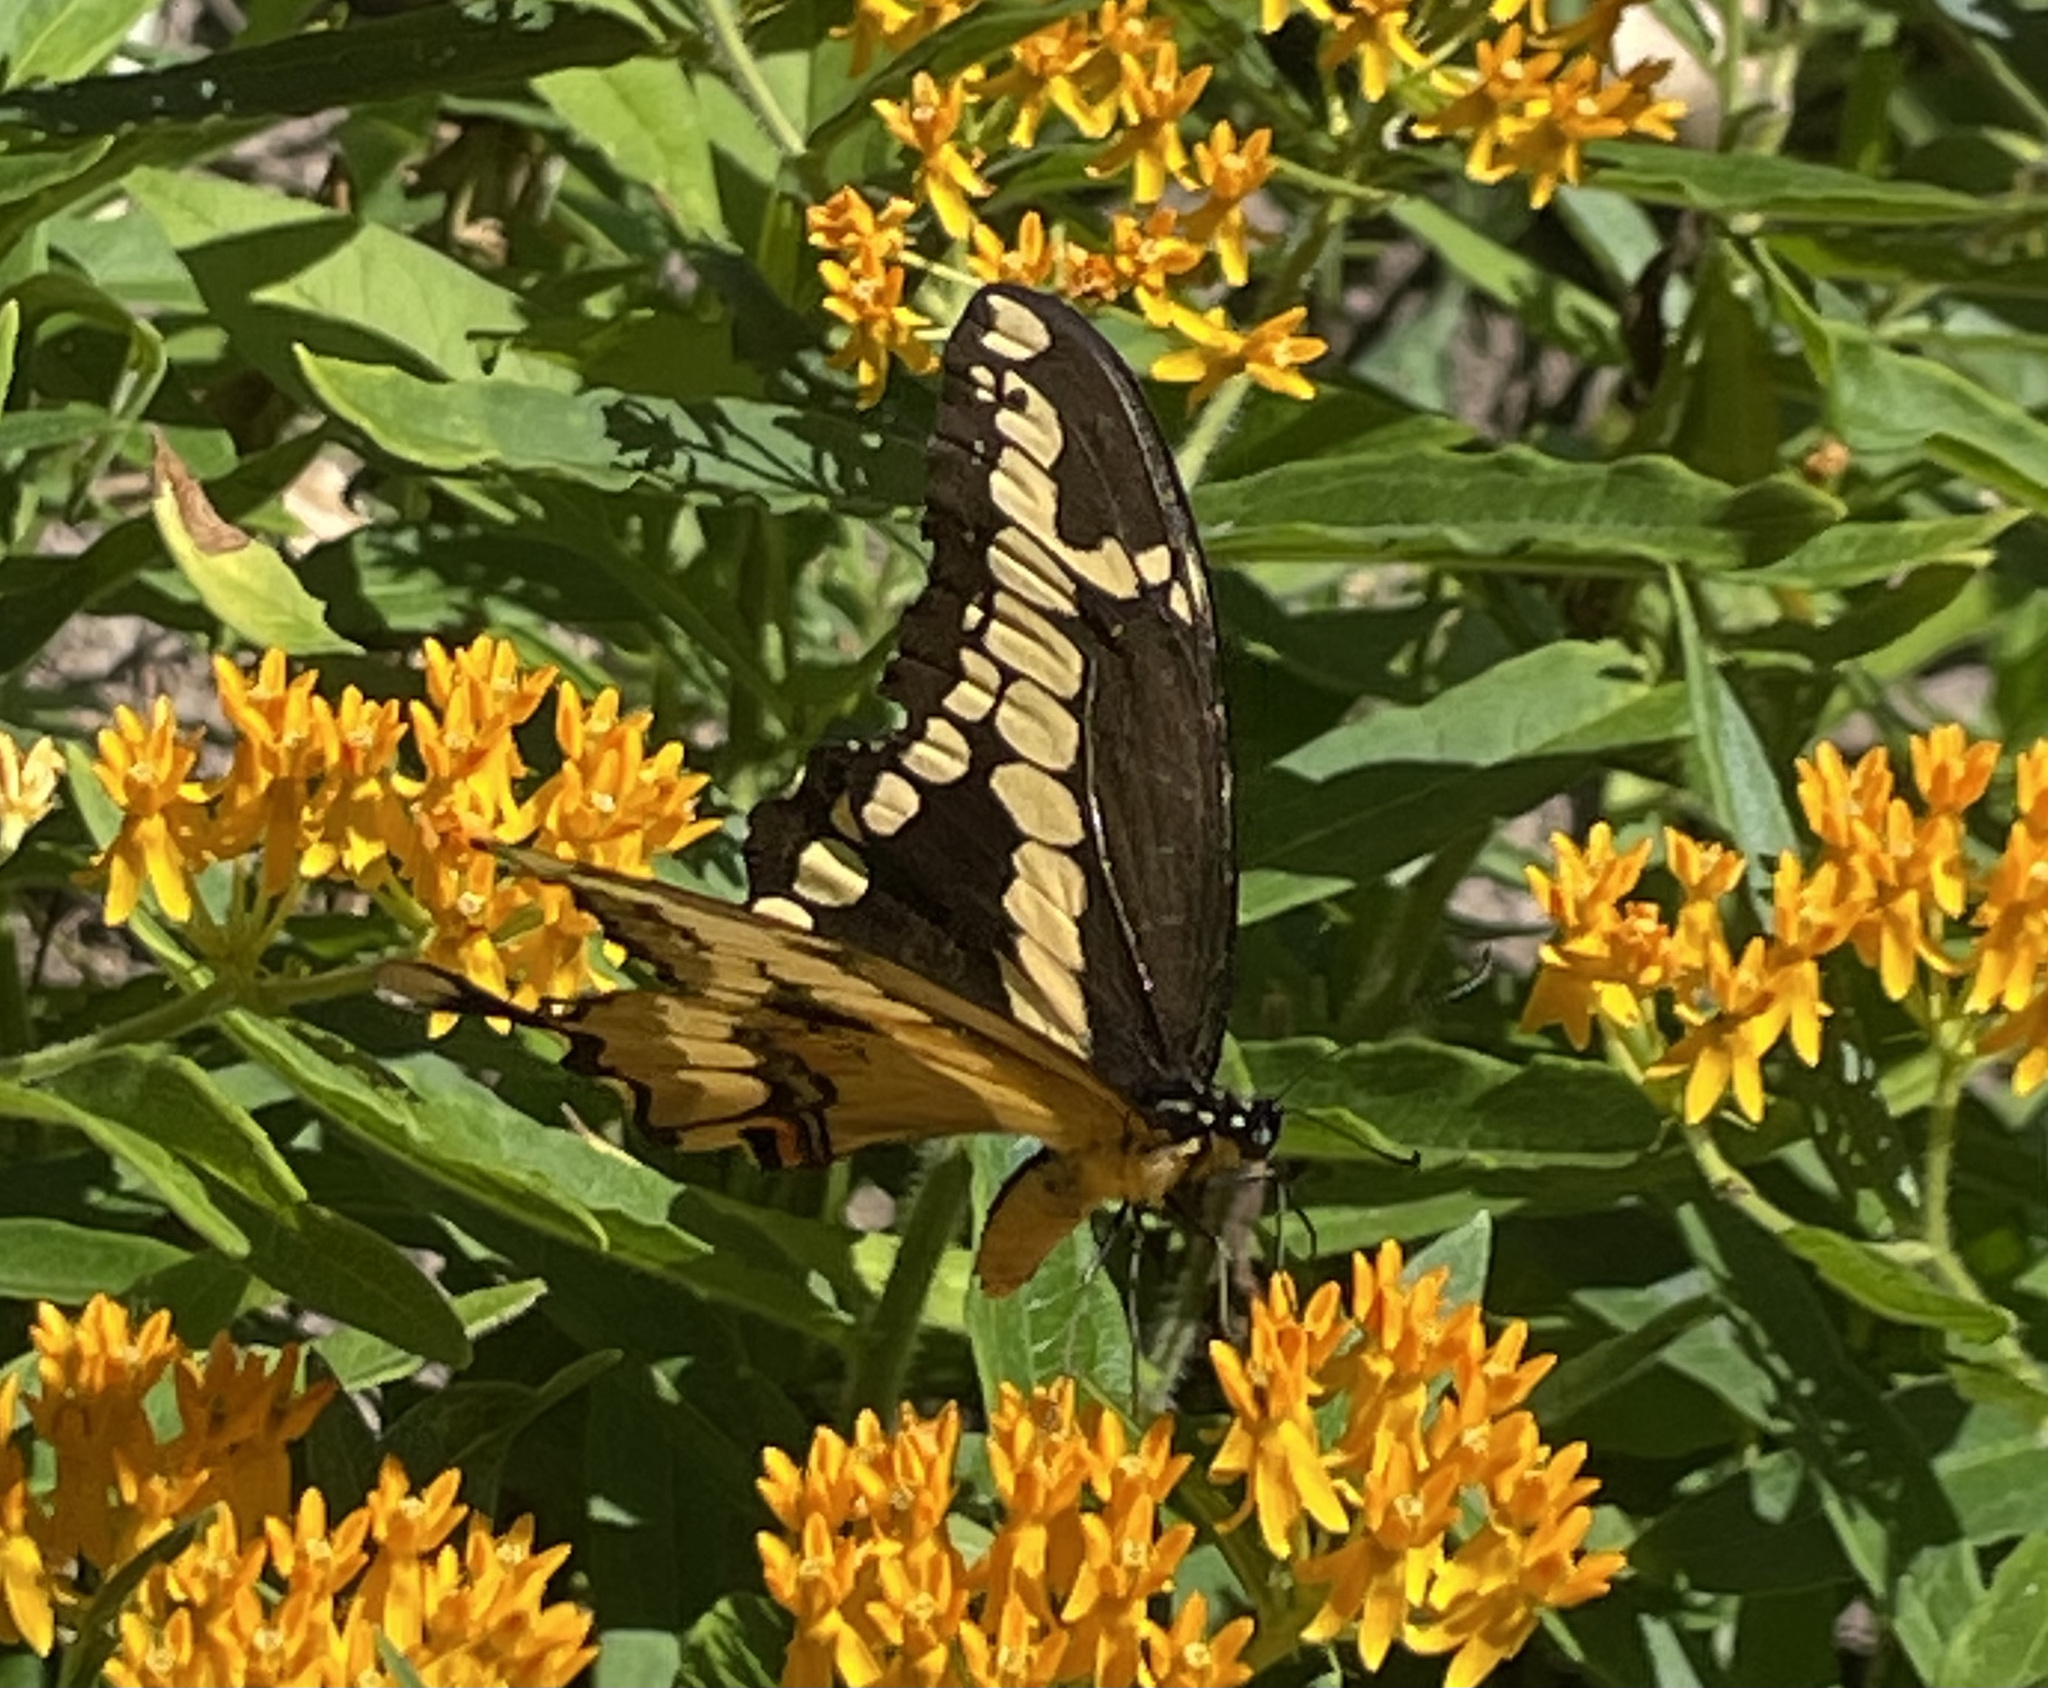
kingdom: Animalia
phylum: Arthropoda
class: Insecta
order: Lepidoptera
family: Papilionidae
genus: Papilio
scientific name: Papilio cresphontes
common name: Giant swallowtail
